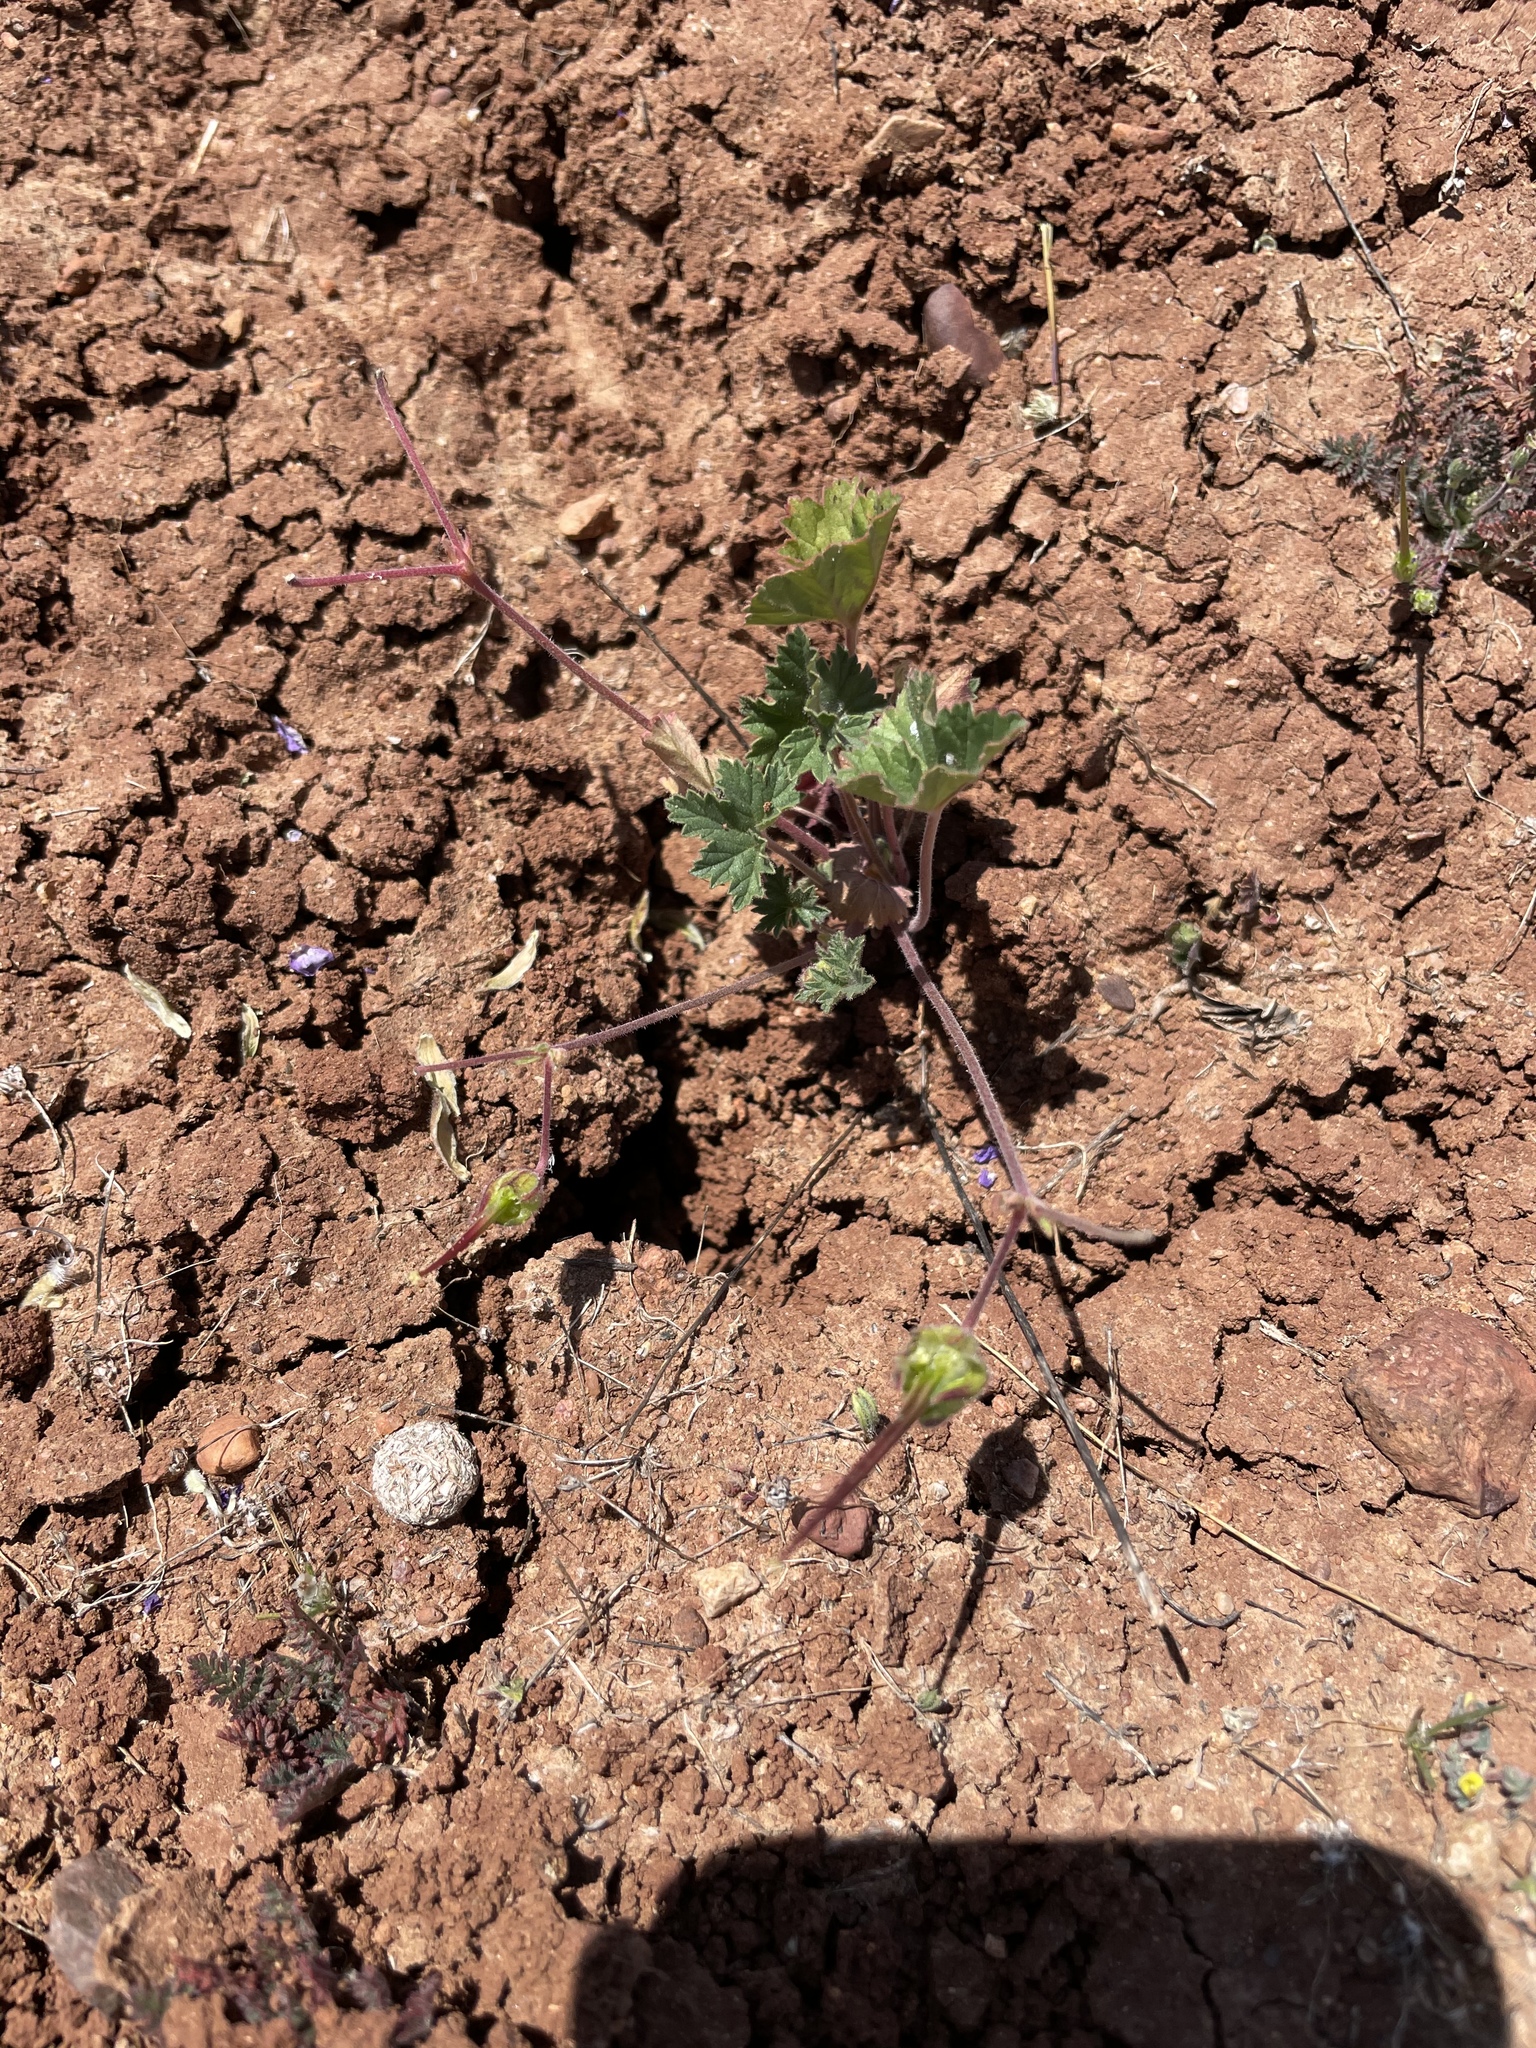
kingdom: Plantae
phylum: Tracheophyta
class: Magnoliopsida
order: Geraniales
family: Geraniaceae
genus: California
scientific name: California macrophylla
